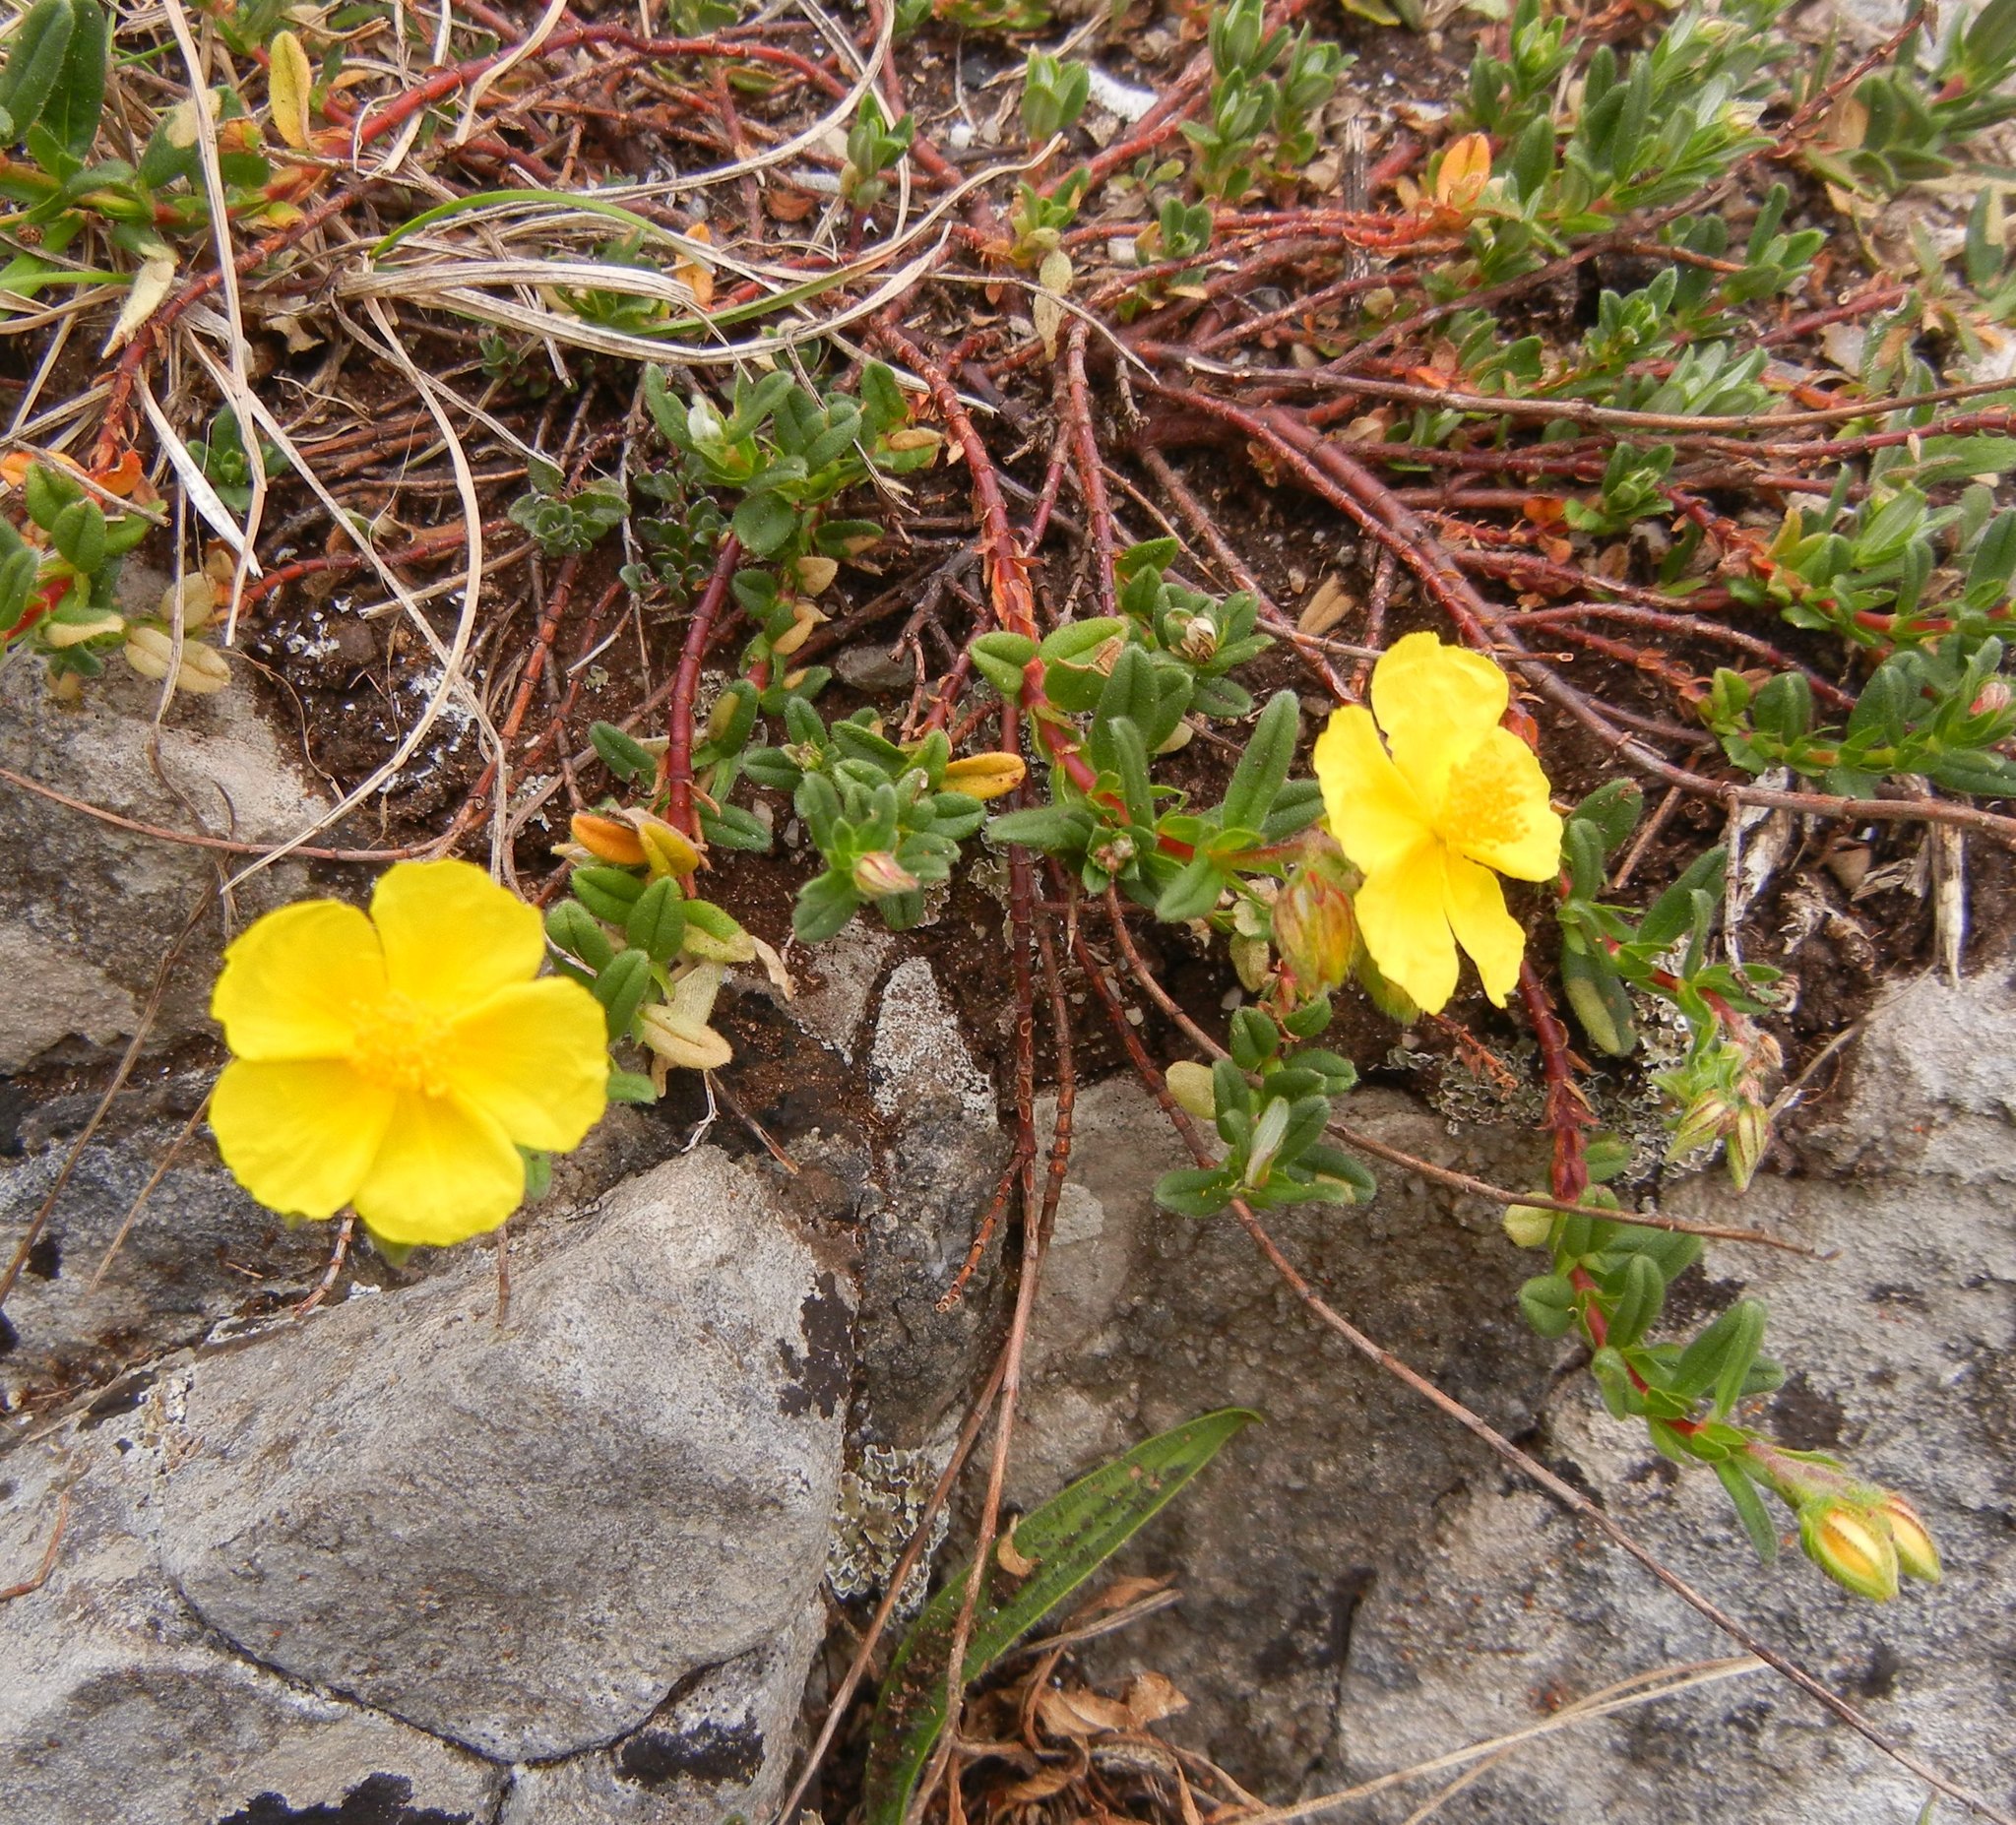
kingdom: Plantae
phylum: Tracheophyta
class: Magnoliopsida
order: Malvales
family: Cistaceae
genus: Helianthemum
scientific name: Helianthemum nummularium
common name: Common rock-rose
